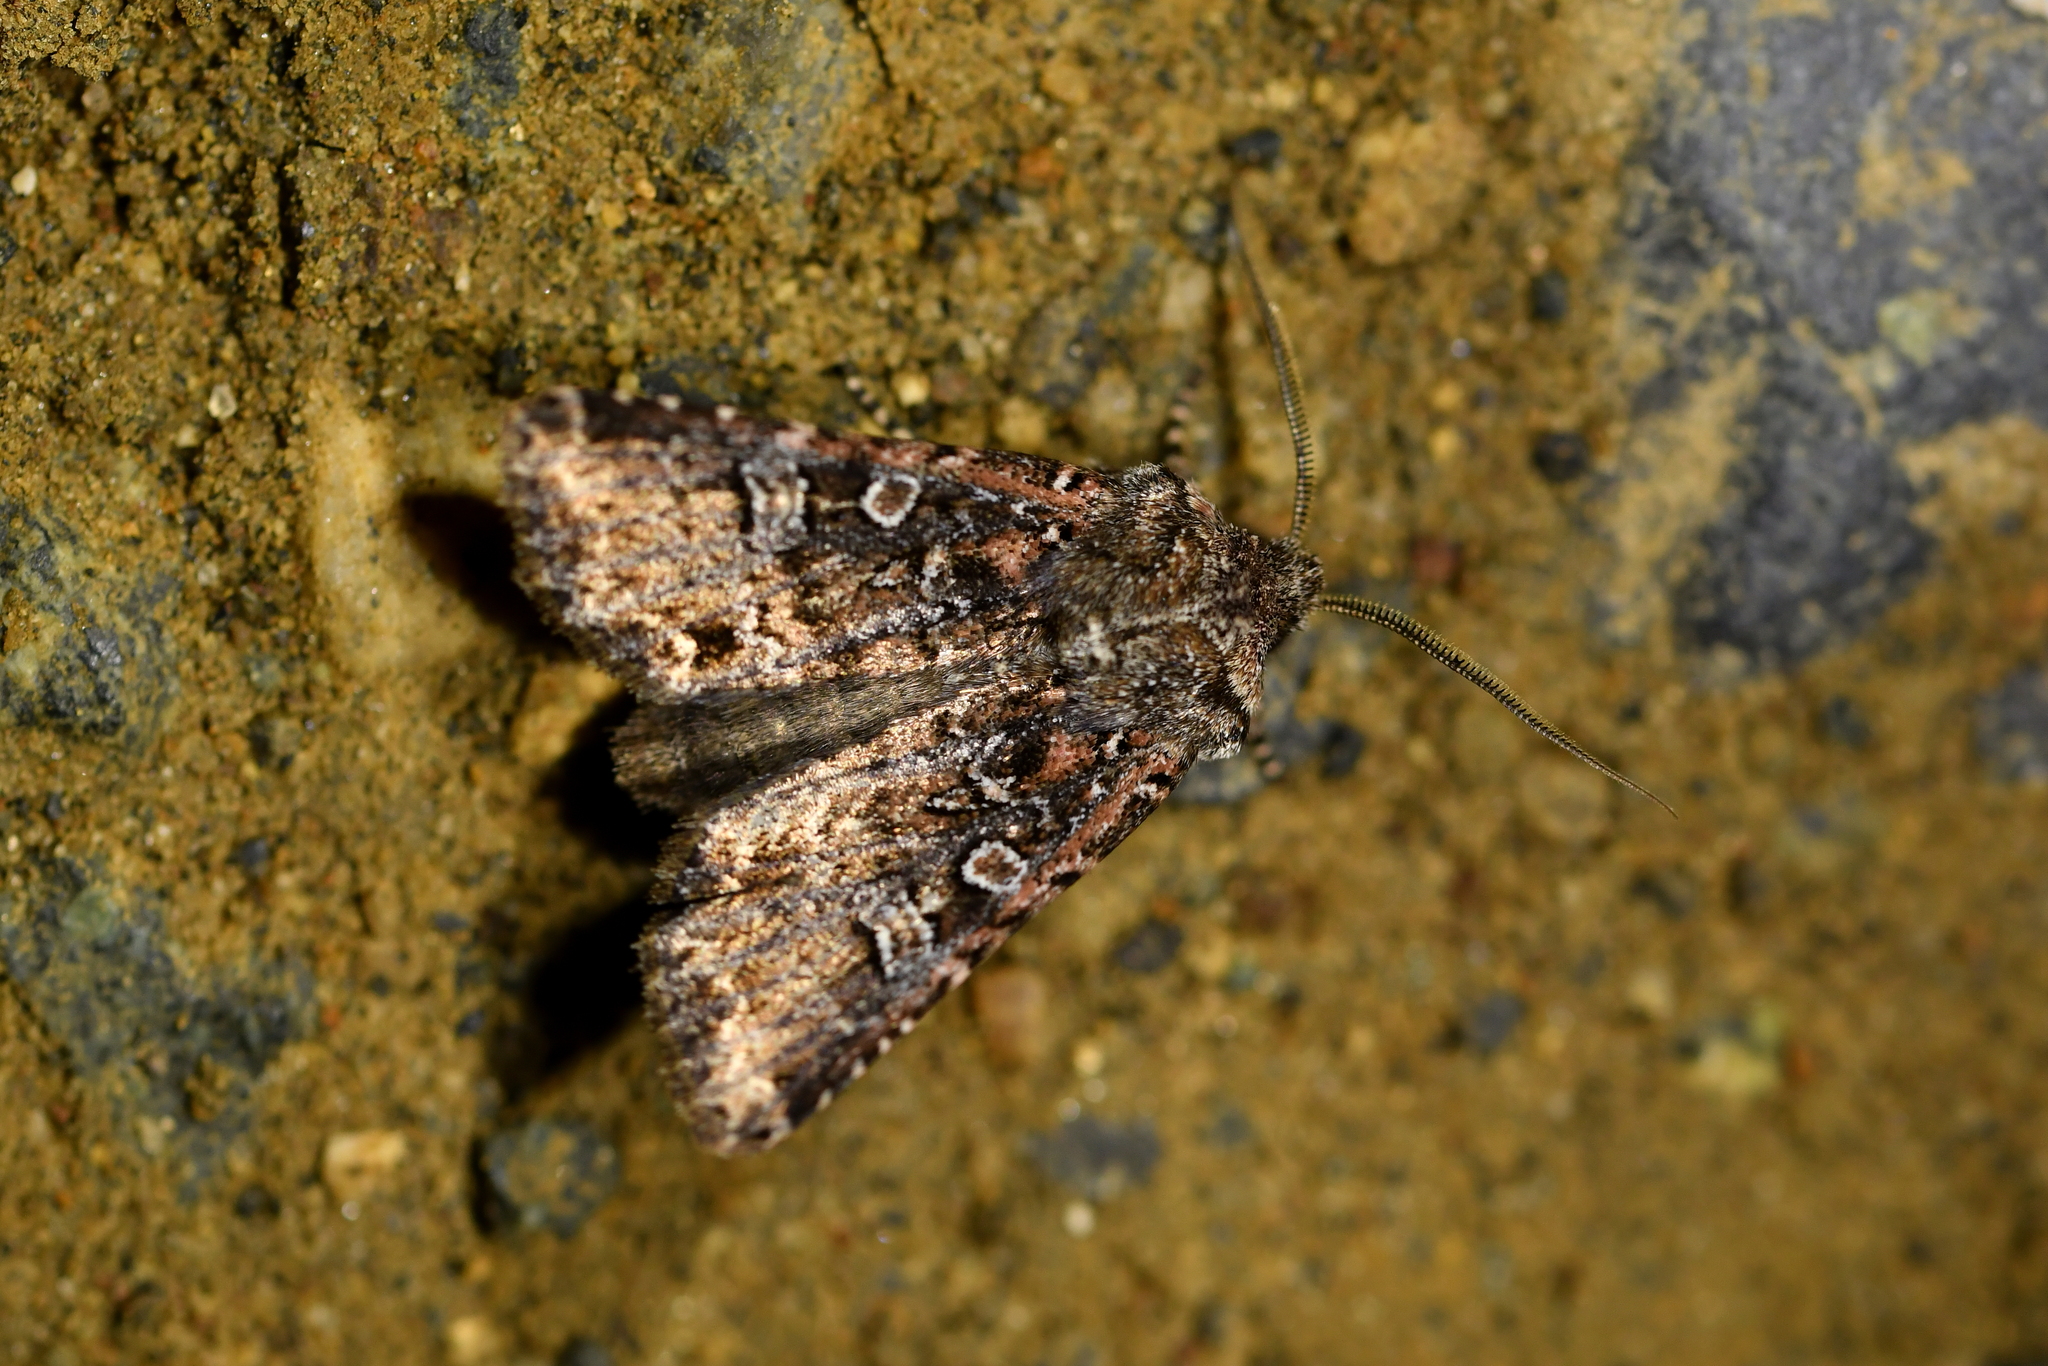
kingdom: Animalia
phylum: Arthropoda
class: Insecta
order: Lepidoptera
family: Noctuidae
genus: Ichneutica
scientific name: Ichneutica lithias
